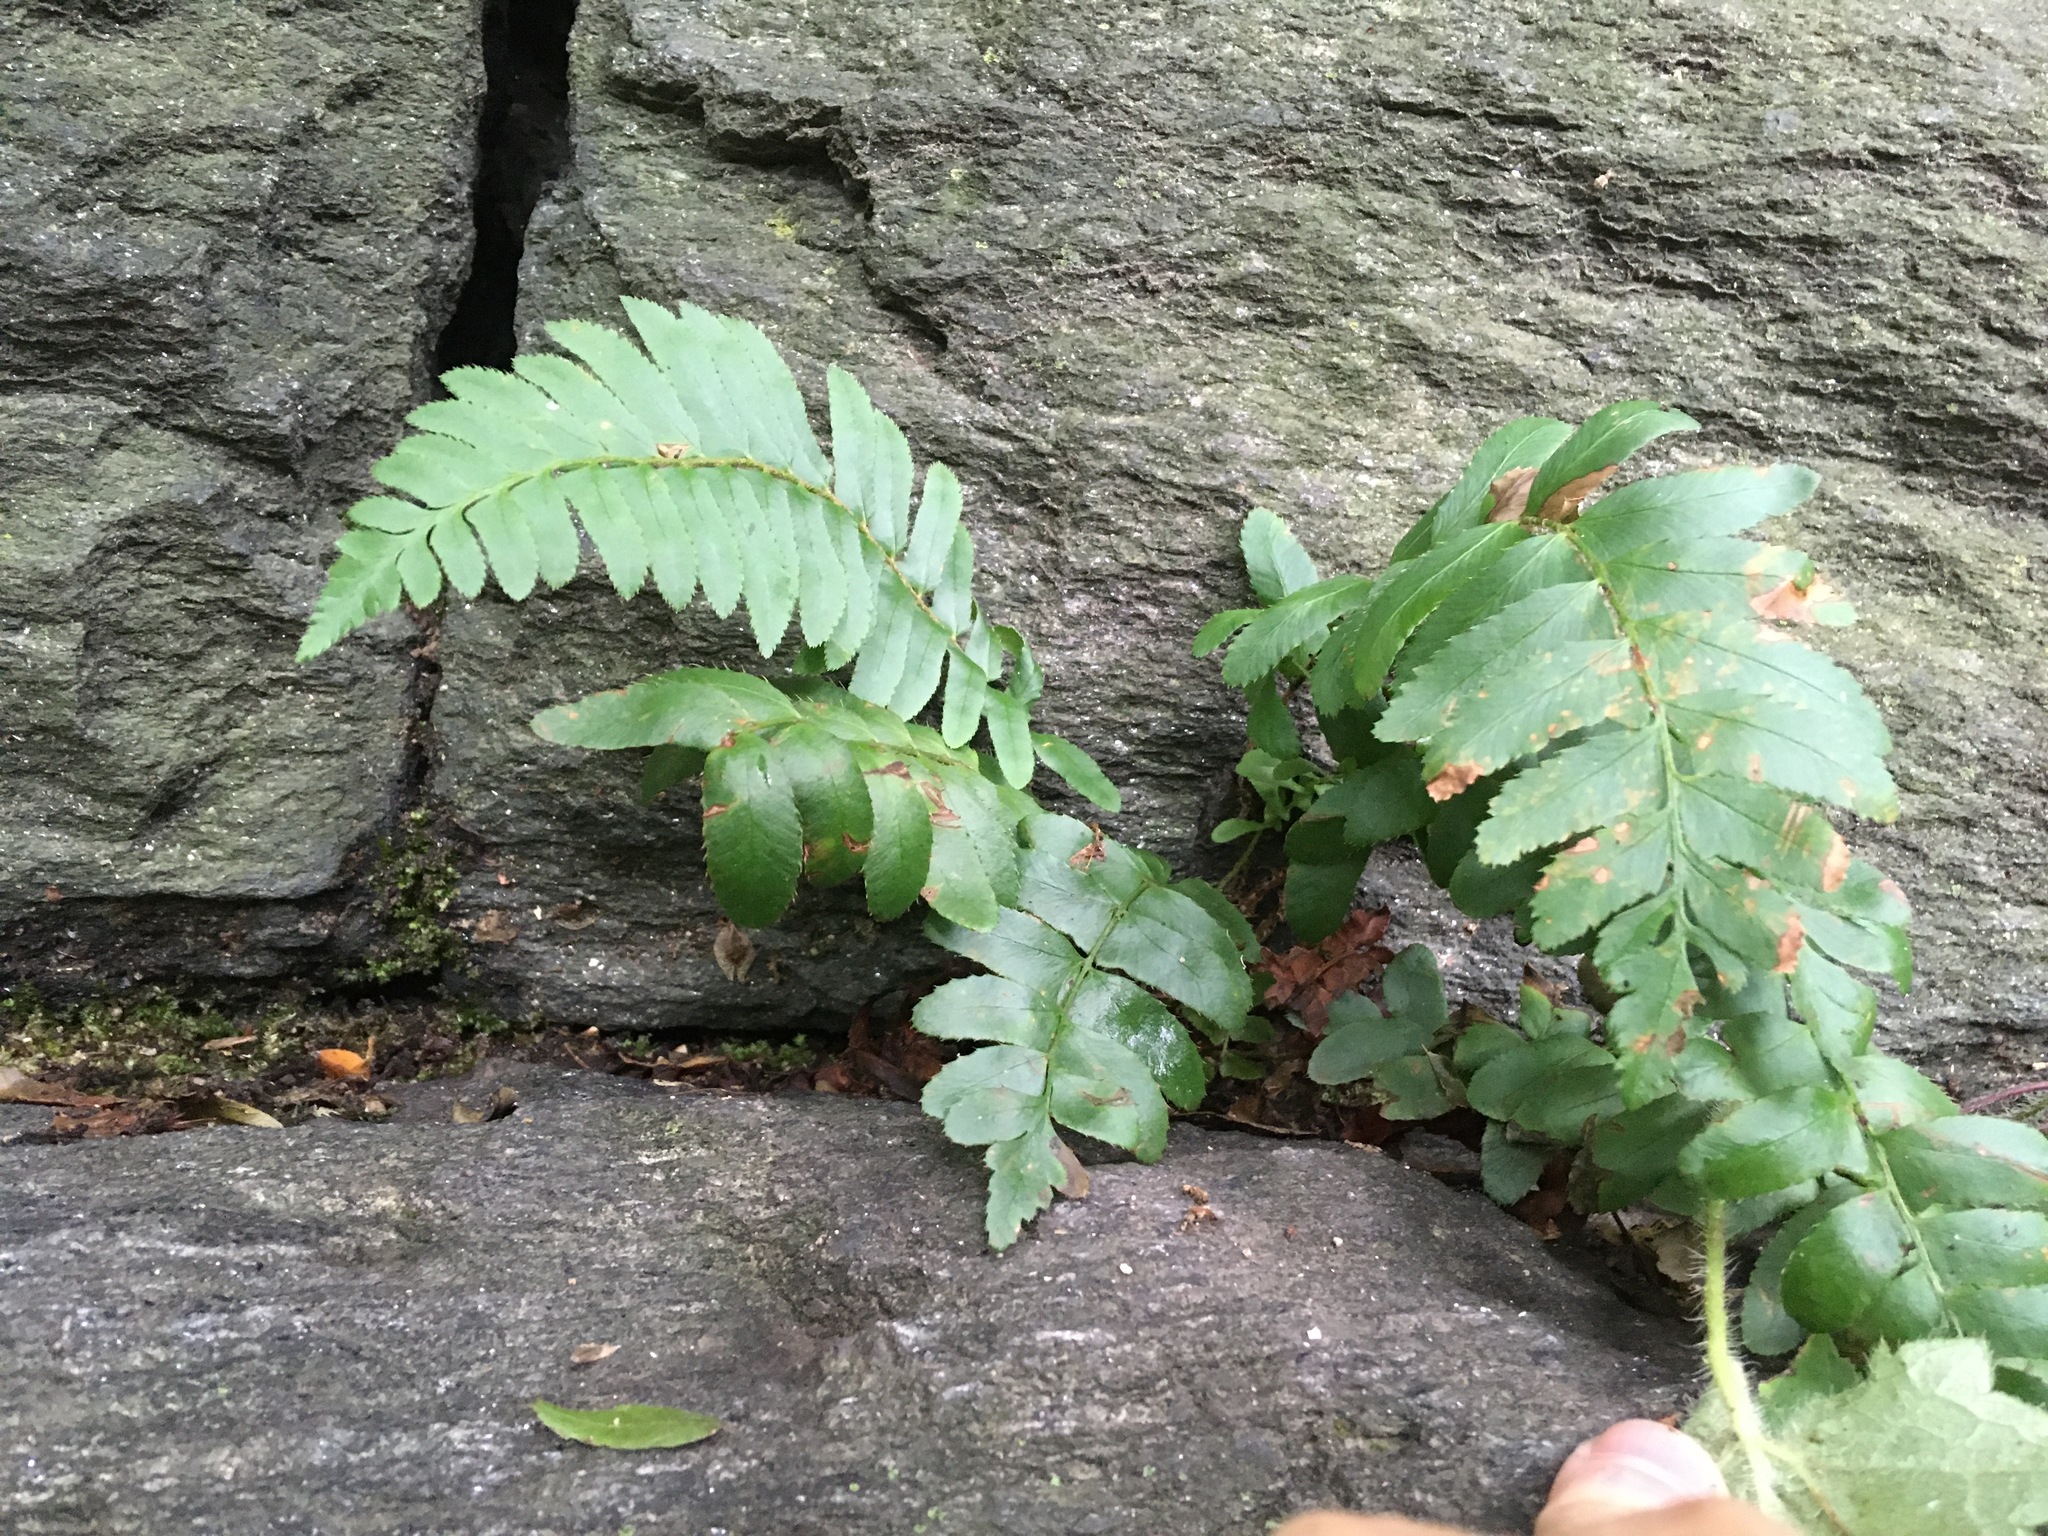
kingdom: Plantae
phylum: Tracheophyta
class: Polypodiopsida
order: Polypodiales
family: Dryopteridaceae
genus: Polystichum
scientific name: Polystichum acrostichoides
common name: Christmas fern
